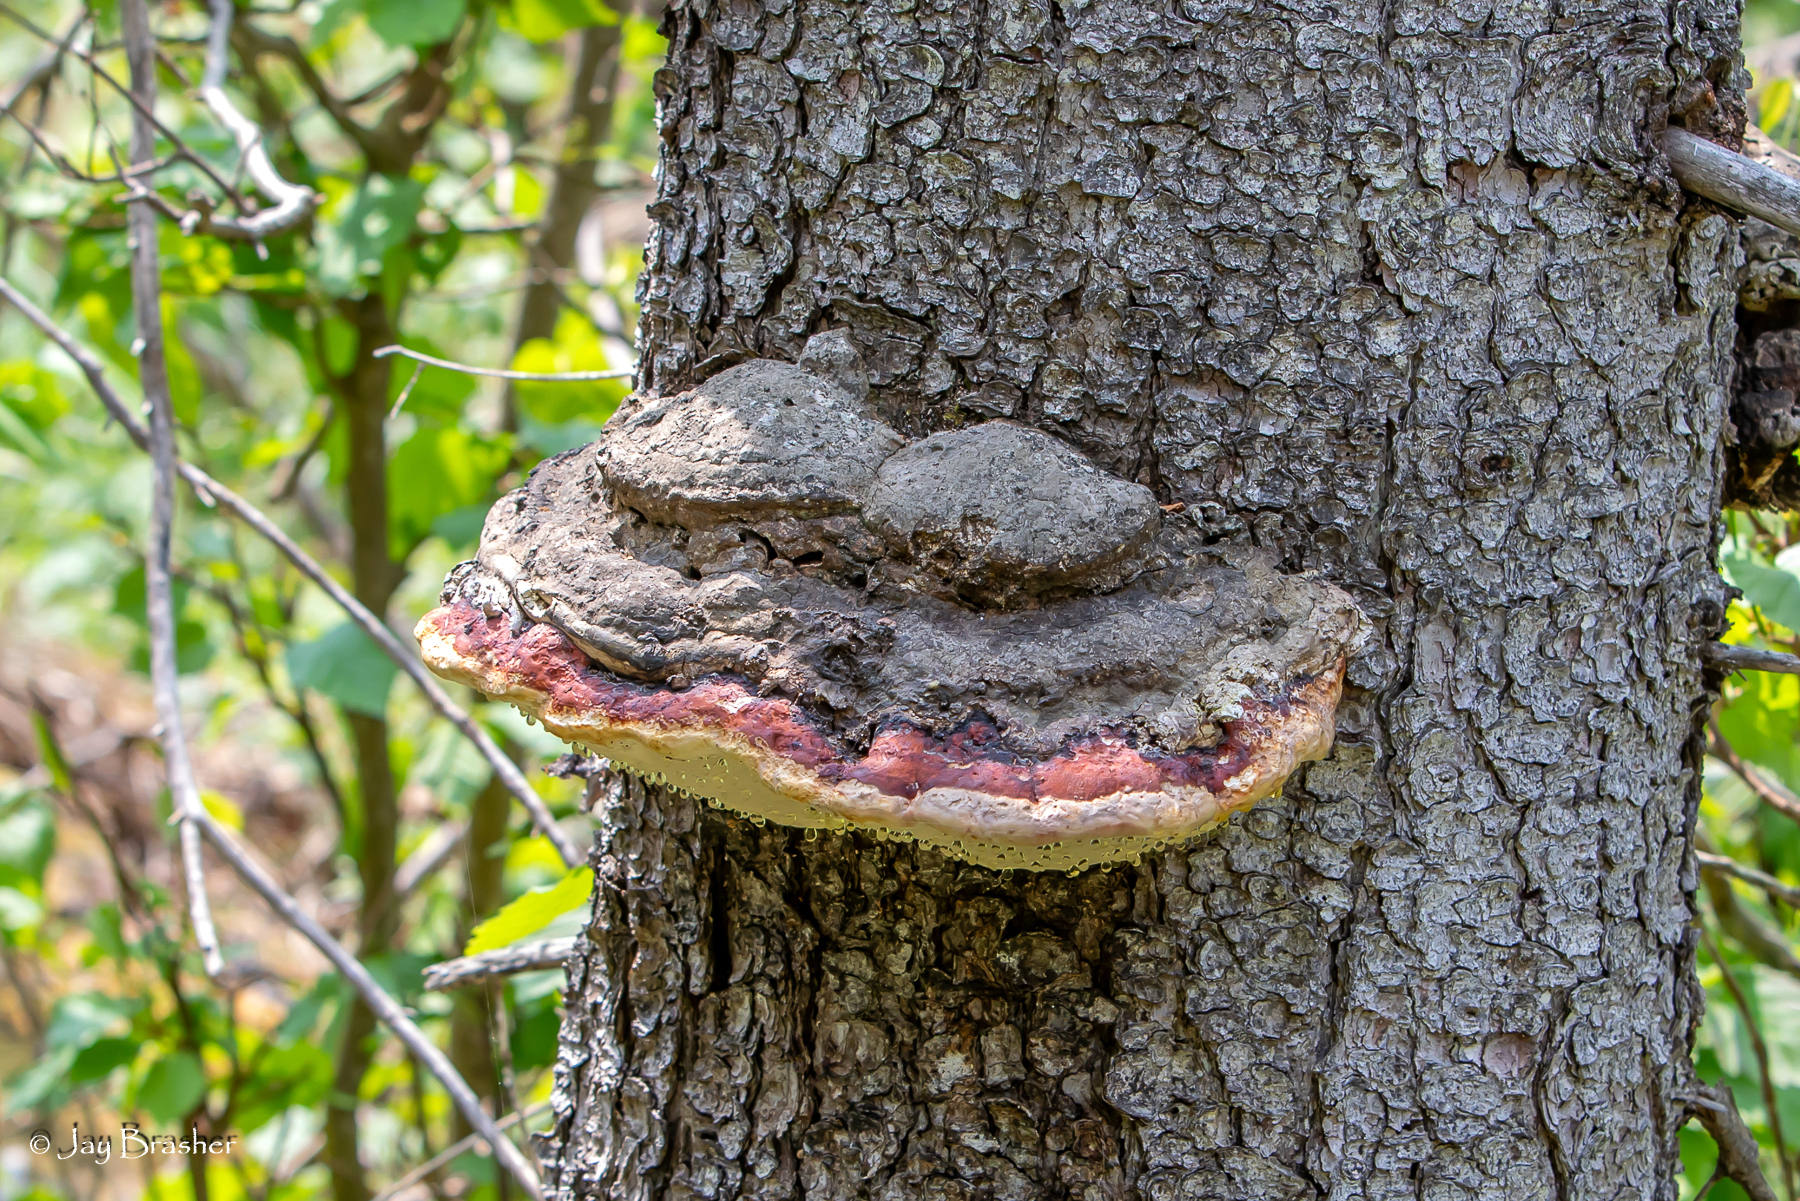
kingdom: Fungi
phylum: Basidiomycota
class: Agaricomycetes
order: Polyporales
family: Fomitopsidaceae
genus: Fomitopsis
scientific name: Fomitopsis mounceae
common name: Northern red belt
